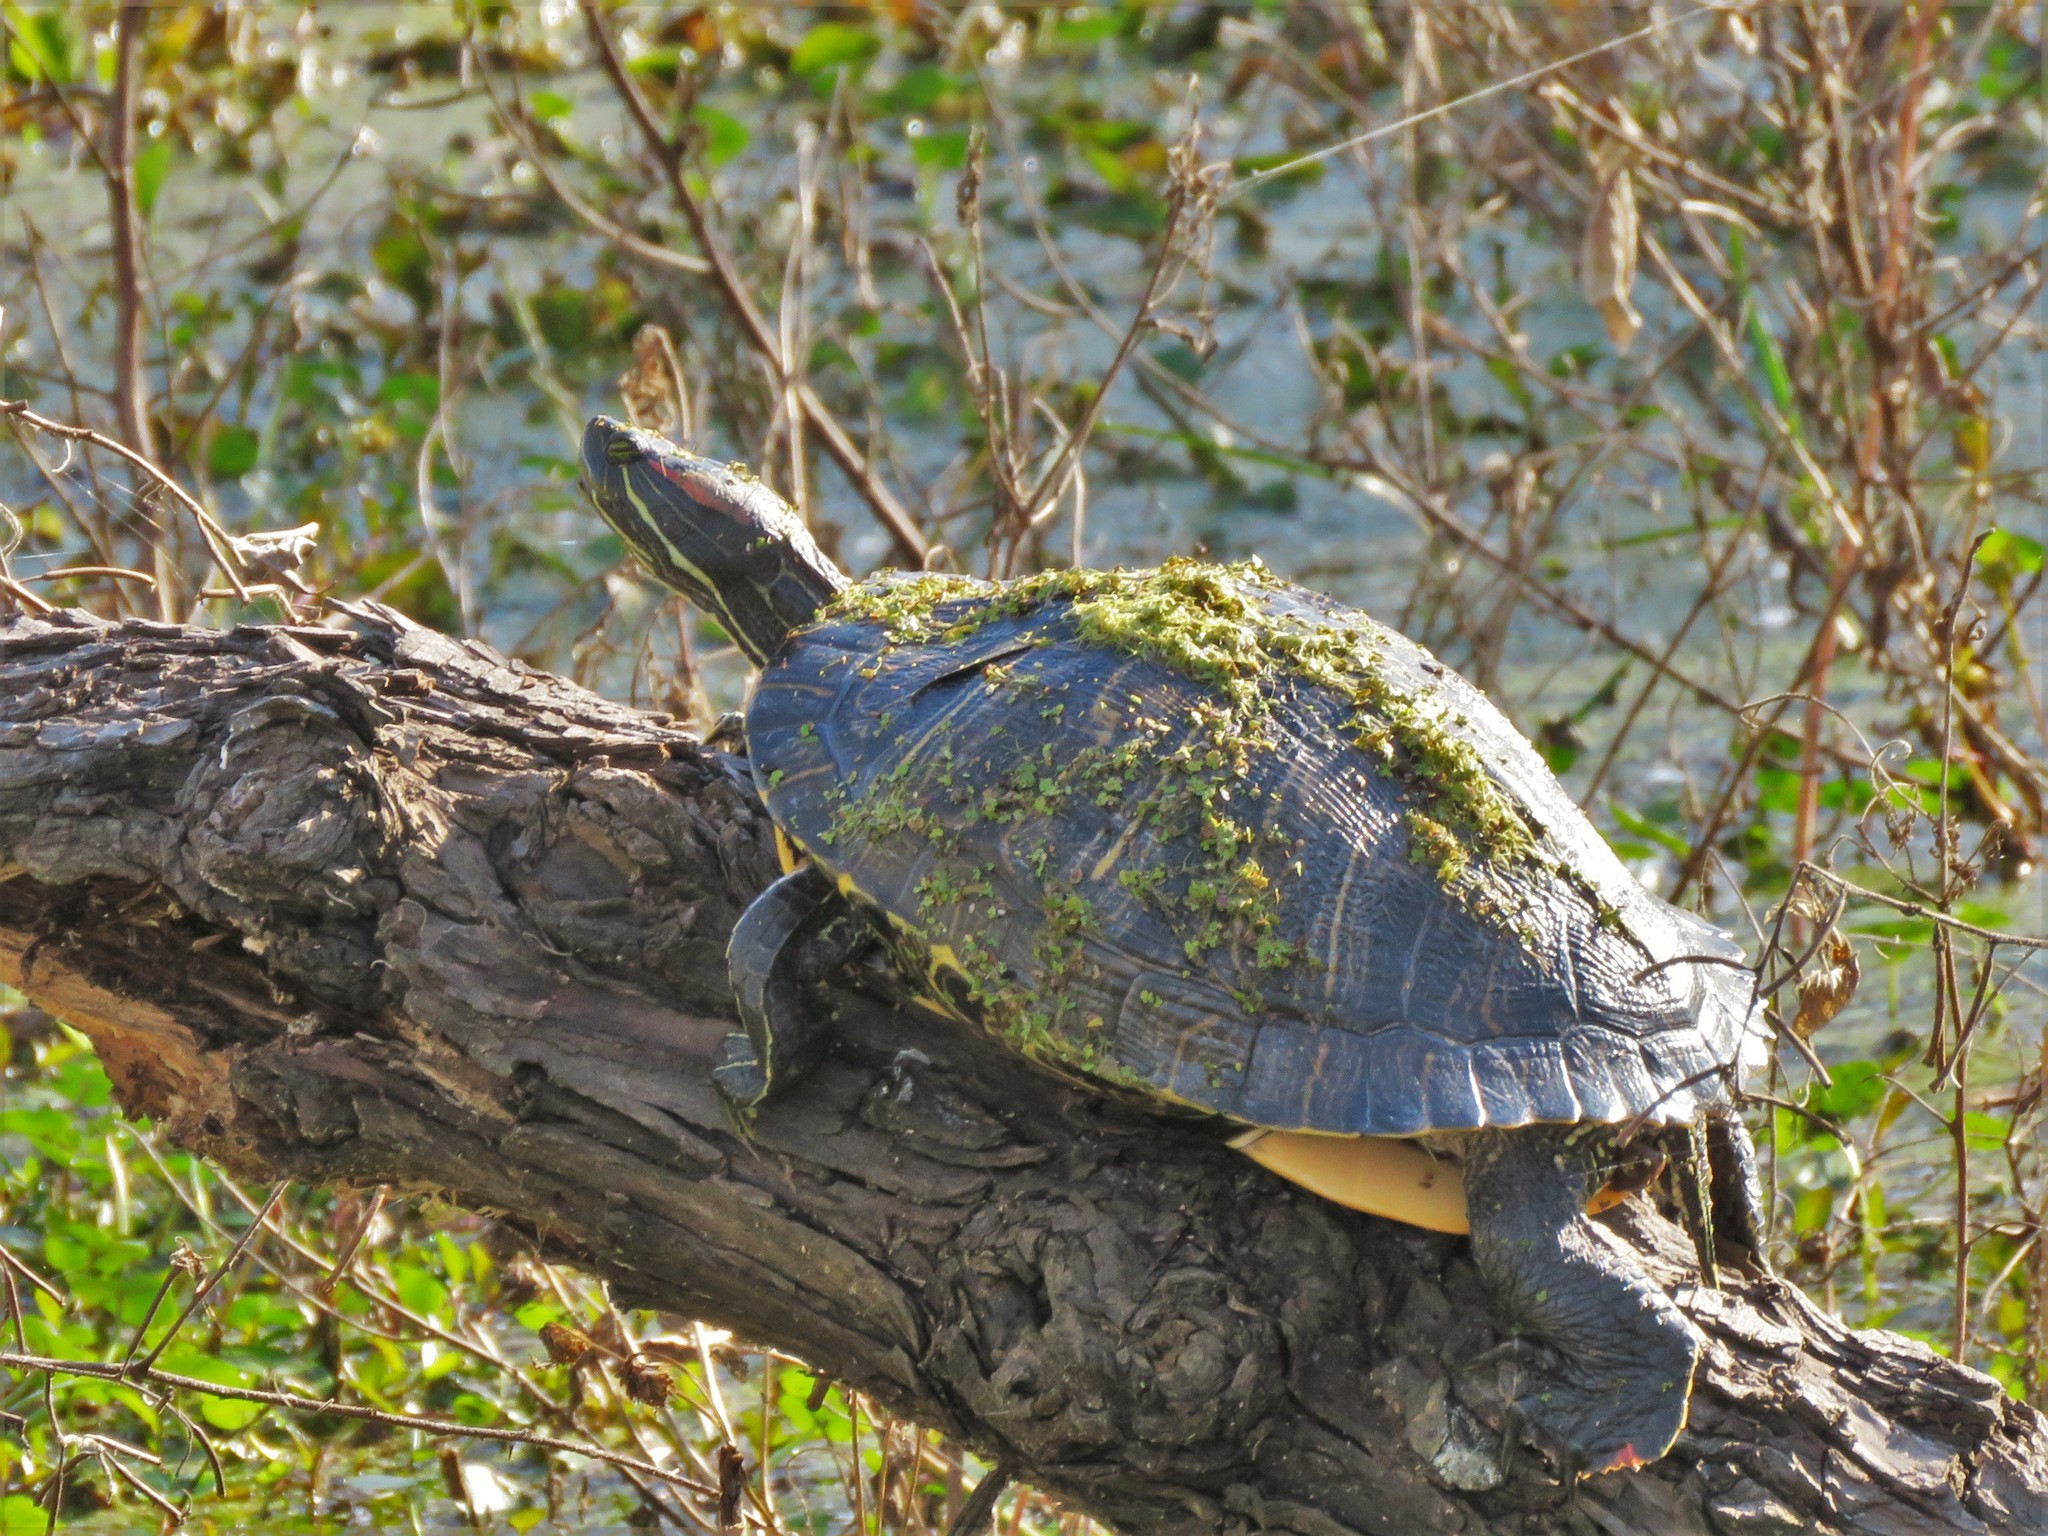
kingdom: Animalia
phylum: Chordata
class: Testudines
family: Emydidae
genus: Trachemys
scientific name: Trachemys scripta
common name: Slider
